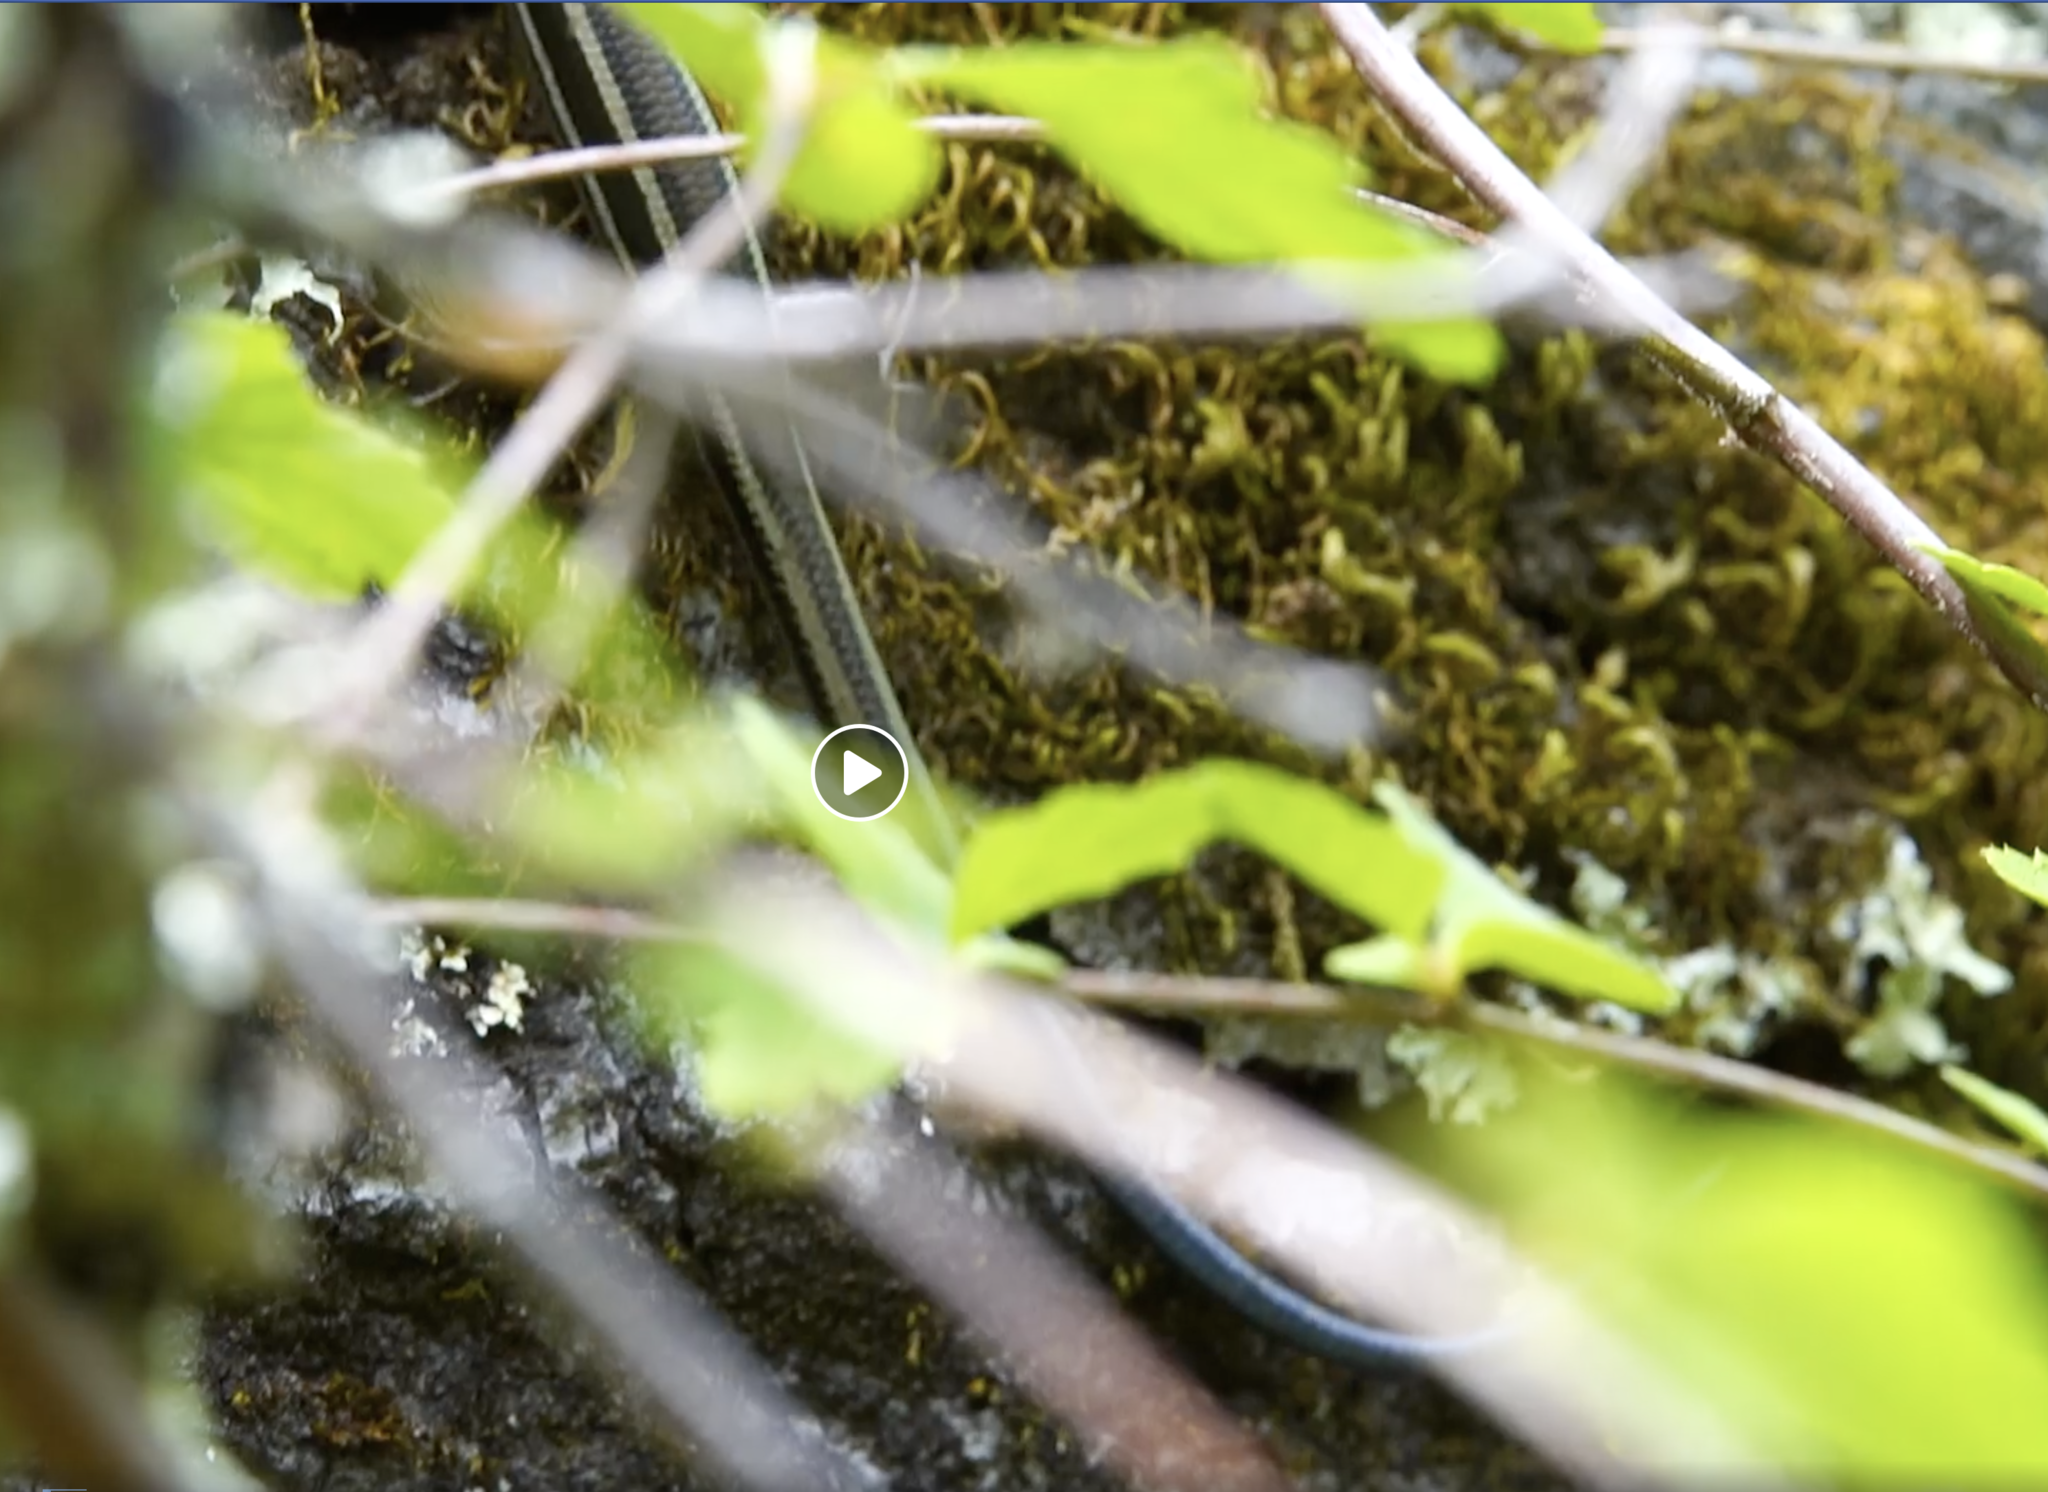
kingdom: Animalia
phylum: Chordata
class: Squamata
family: Scincidae
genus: Plestiodon
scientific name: Plestiodon skiltonianus
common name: Coronado island skink [interparietalis]
